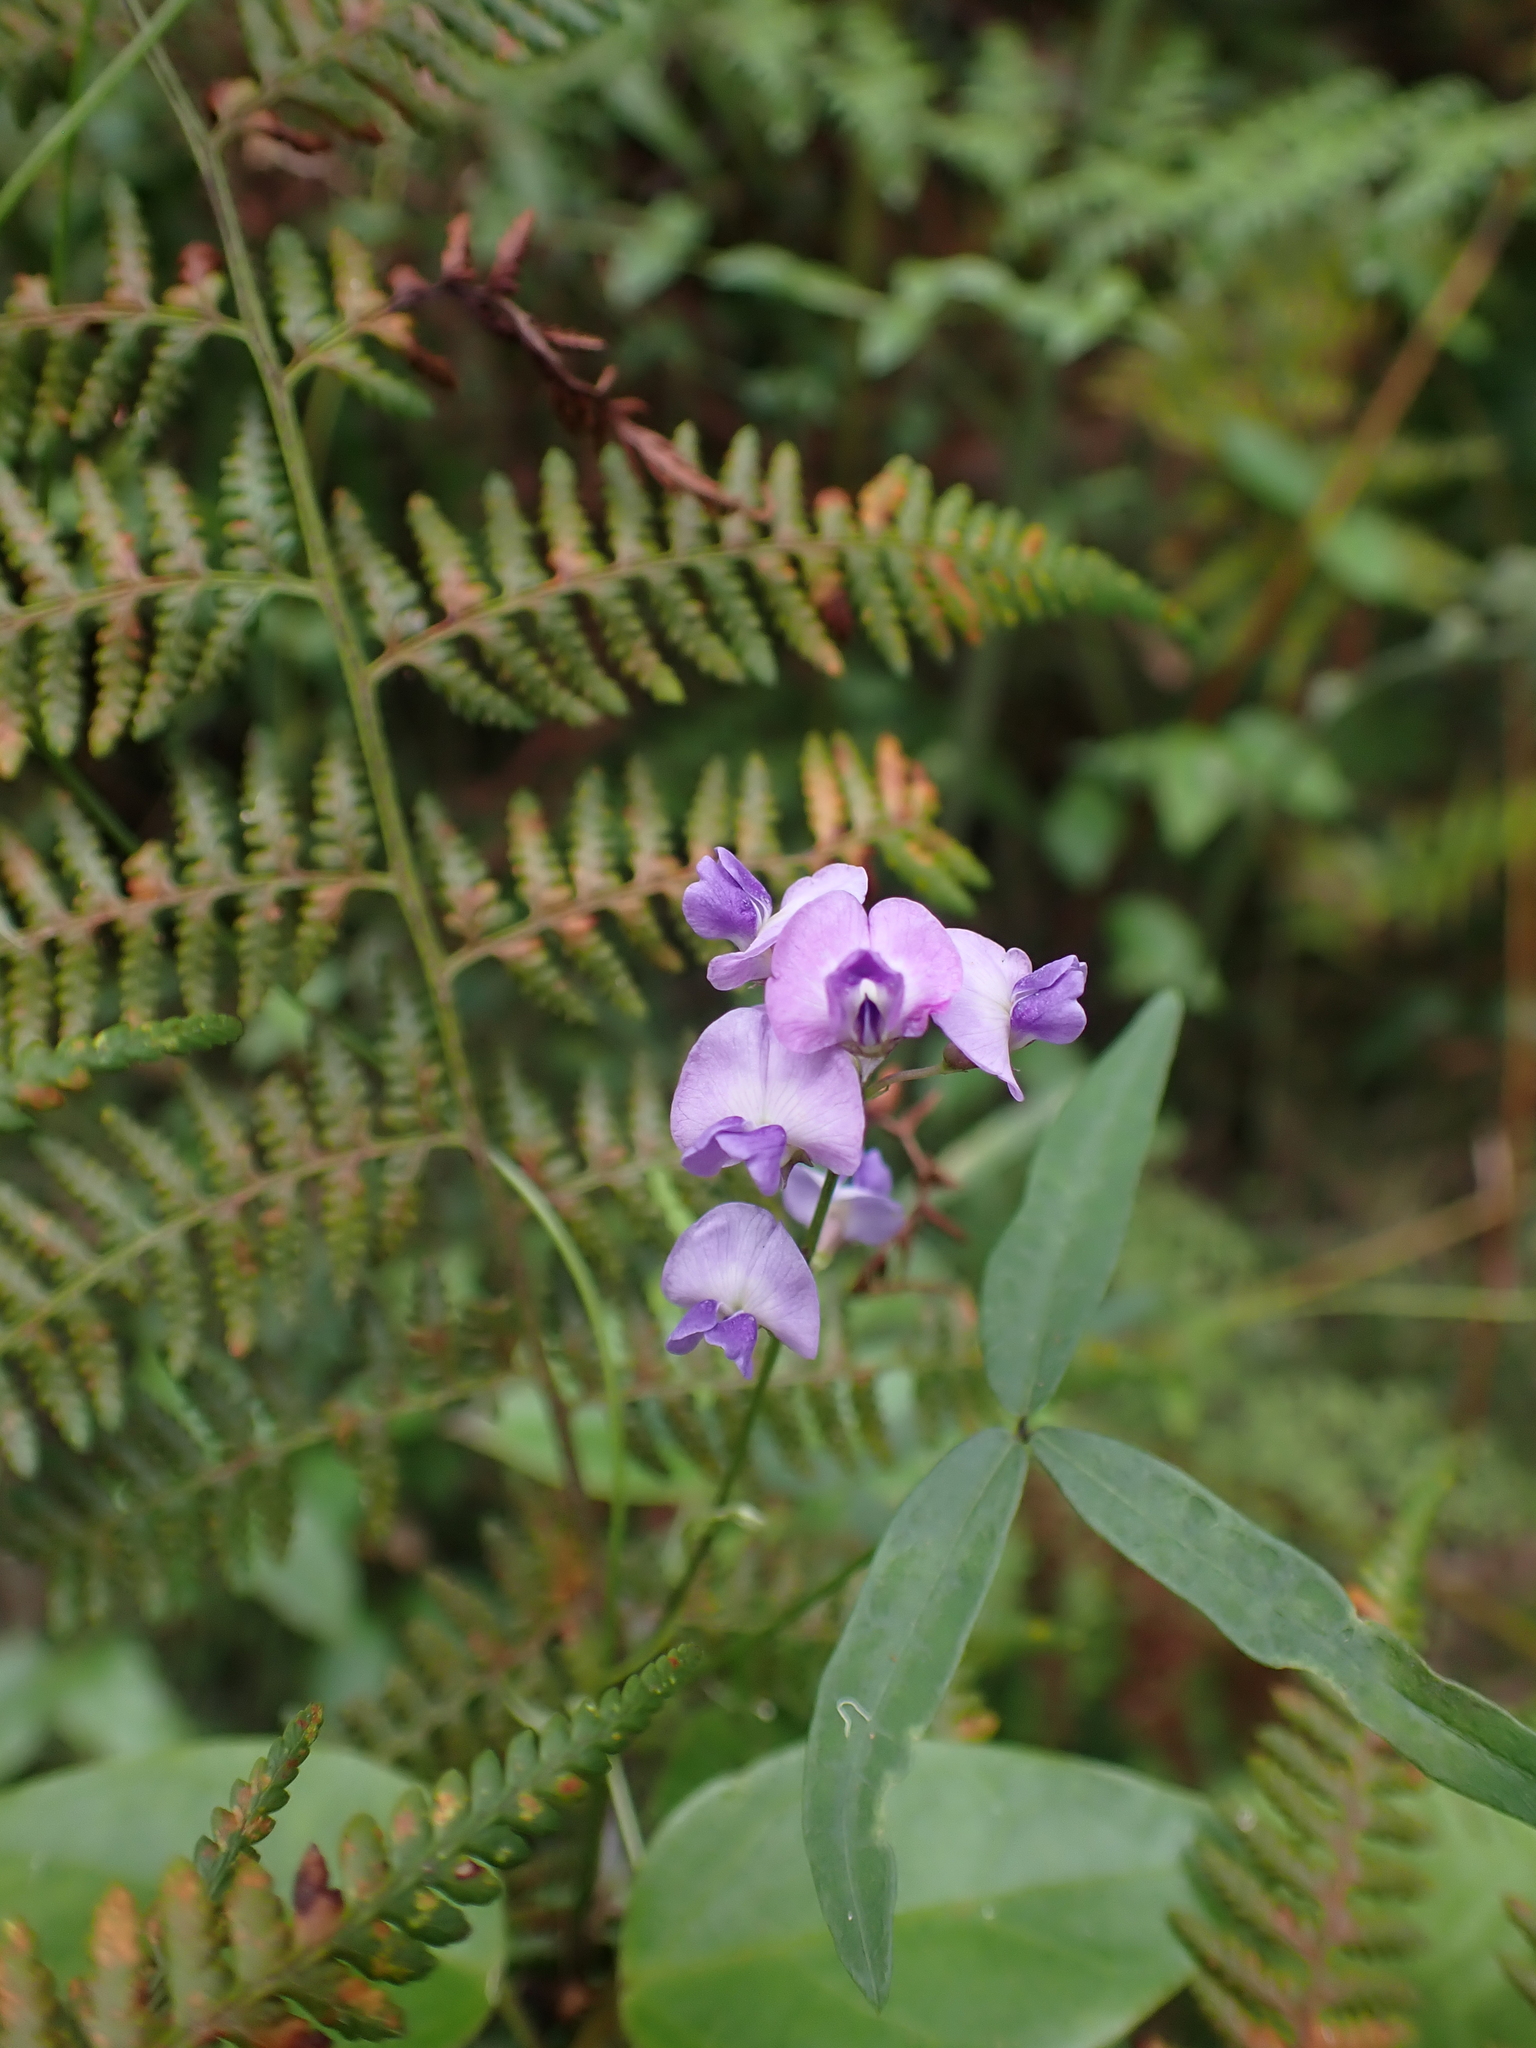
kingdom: Plantae
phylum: Tracheophyta
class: Magnoliopsida
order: Fabales
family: Fabaceae
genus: Glycine
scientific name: Glycine clandestina
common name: Twining glycine
